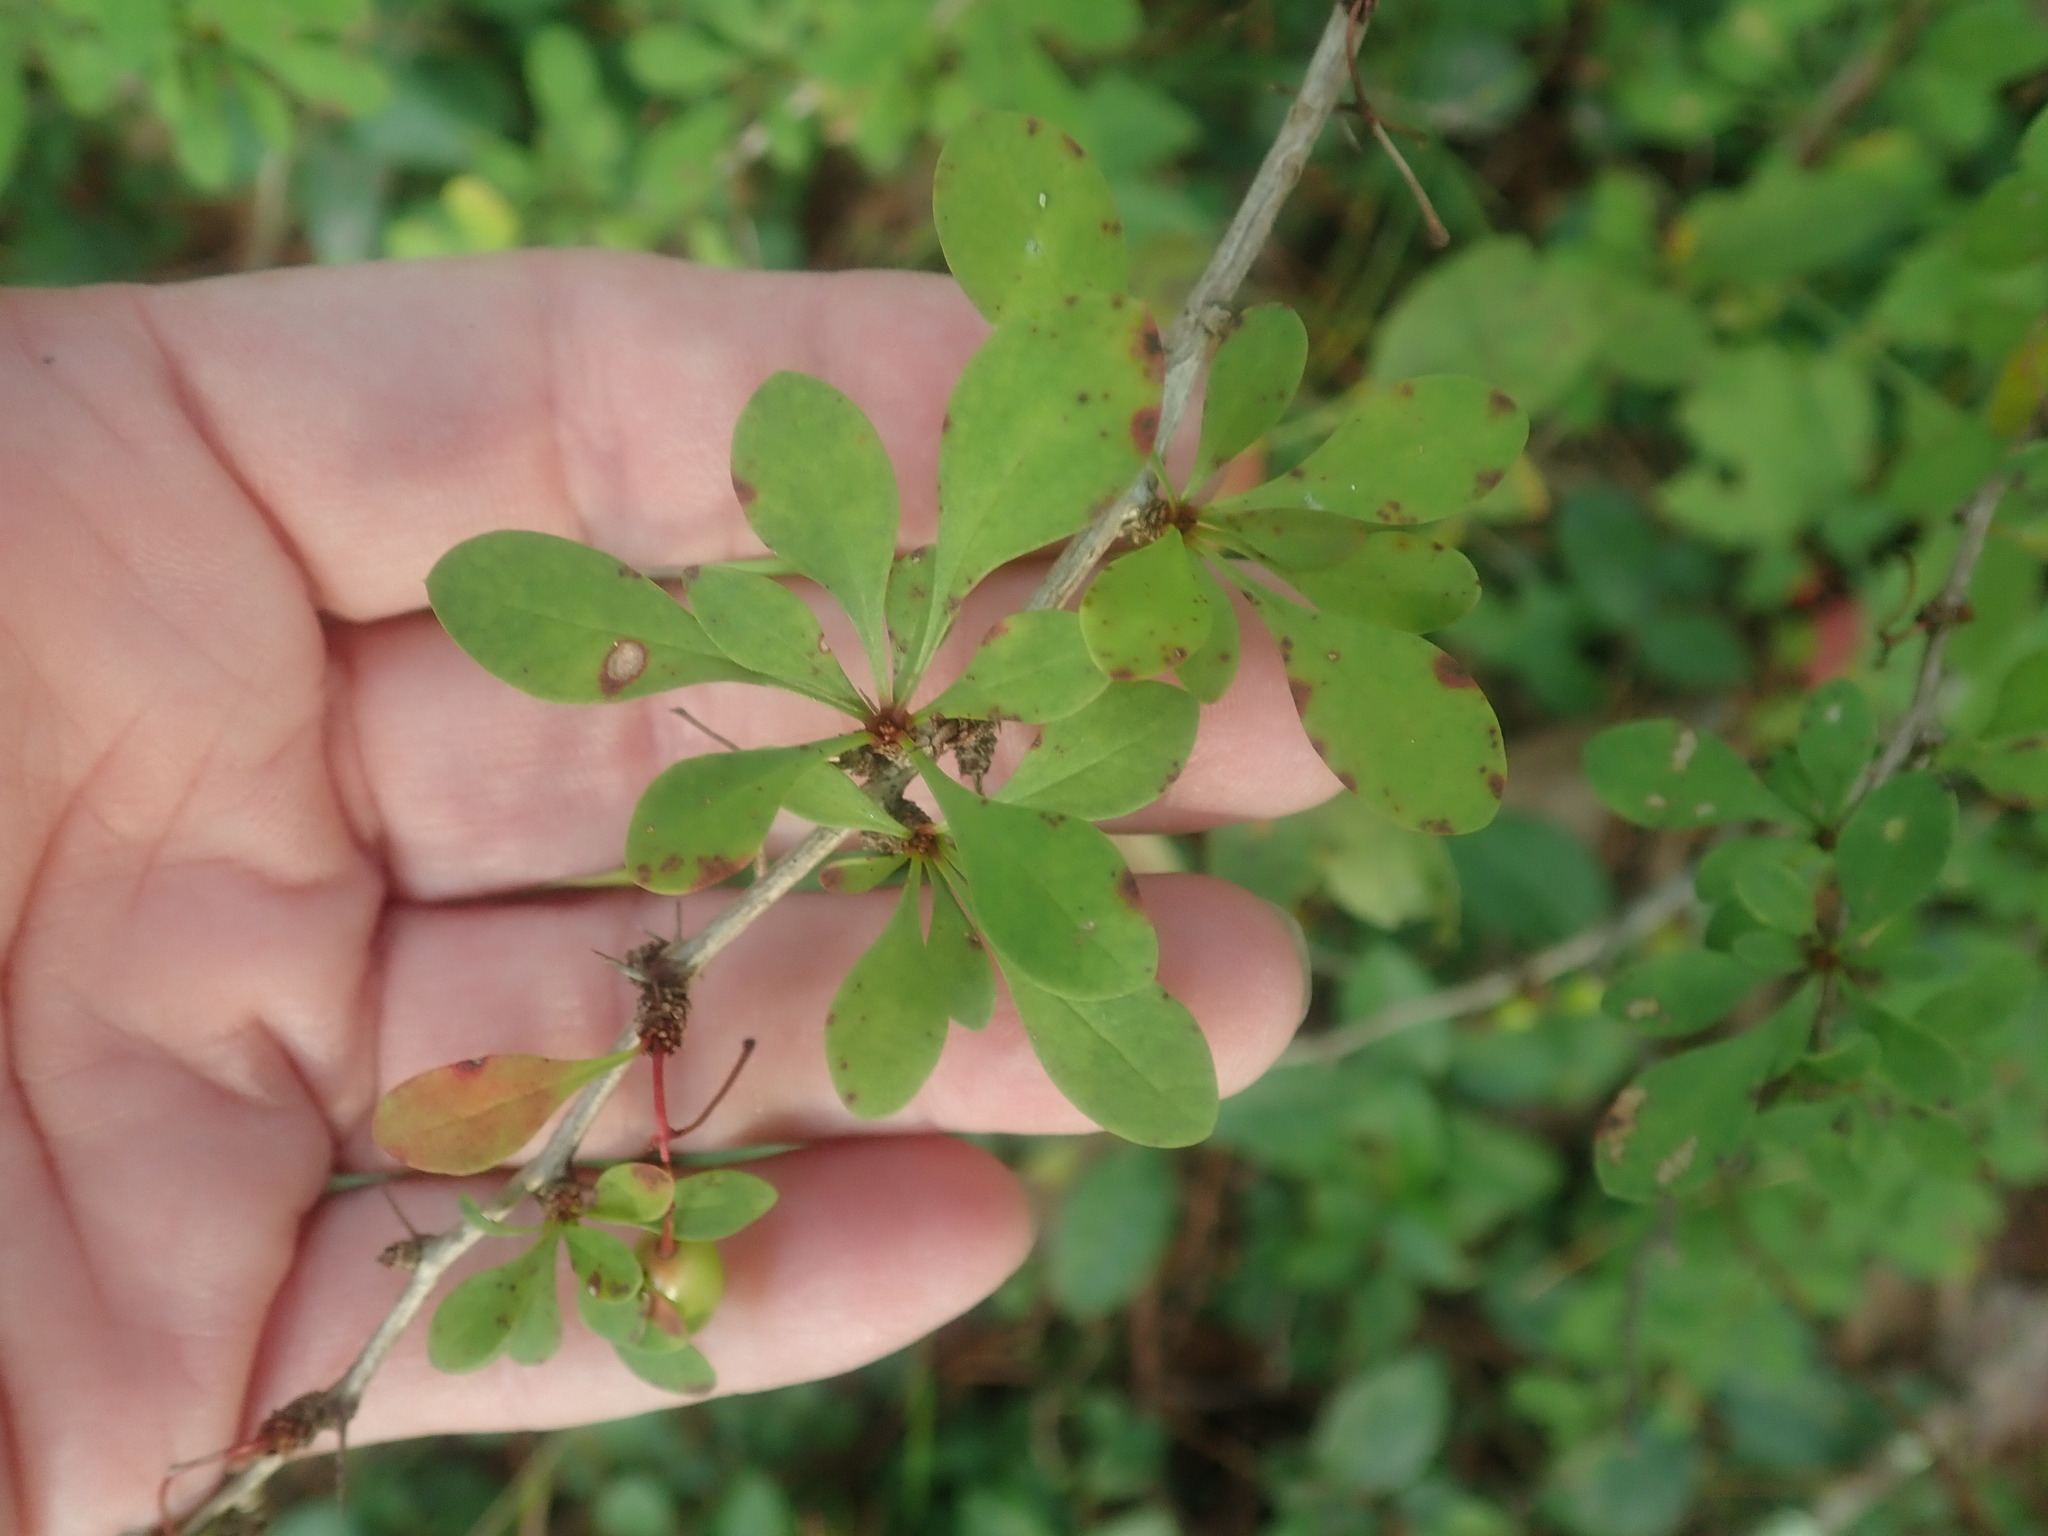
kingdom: Plantae
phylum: Tracheophyta
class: Magnoliopsida
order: Ranunculales
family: Berberidaceae
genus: Berberis
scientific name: Berberis thunbergii
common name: Japanese barberry
